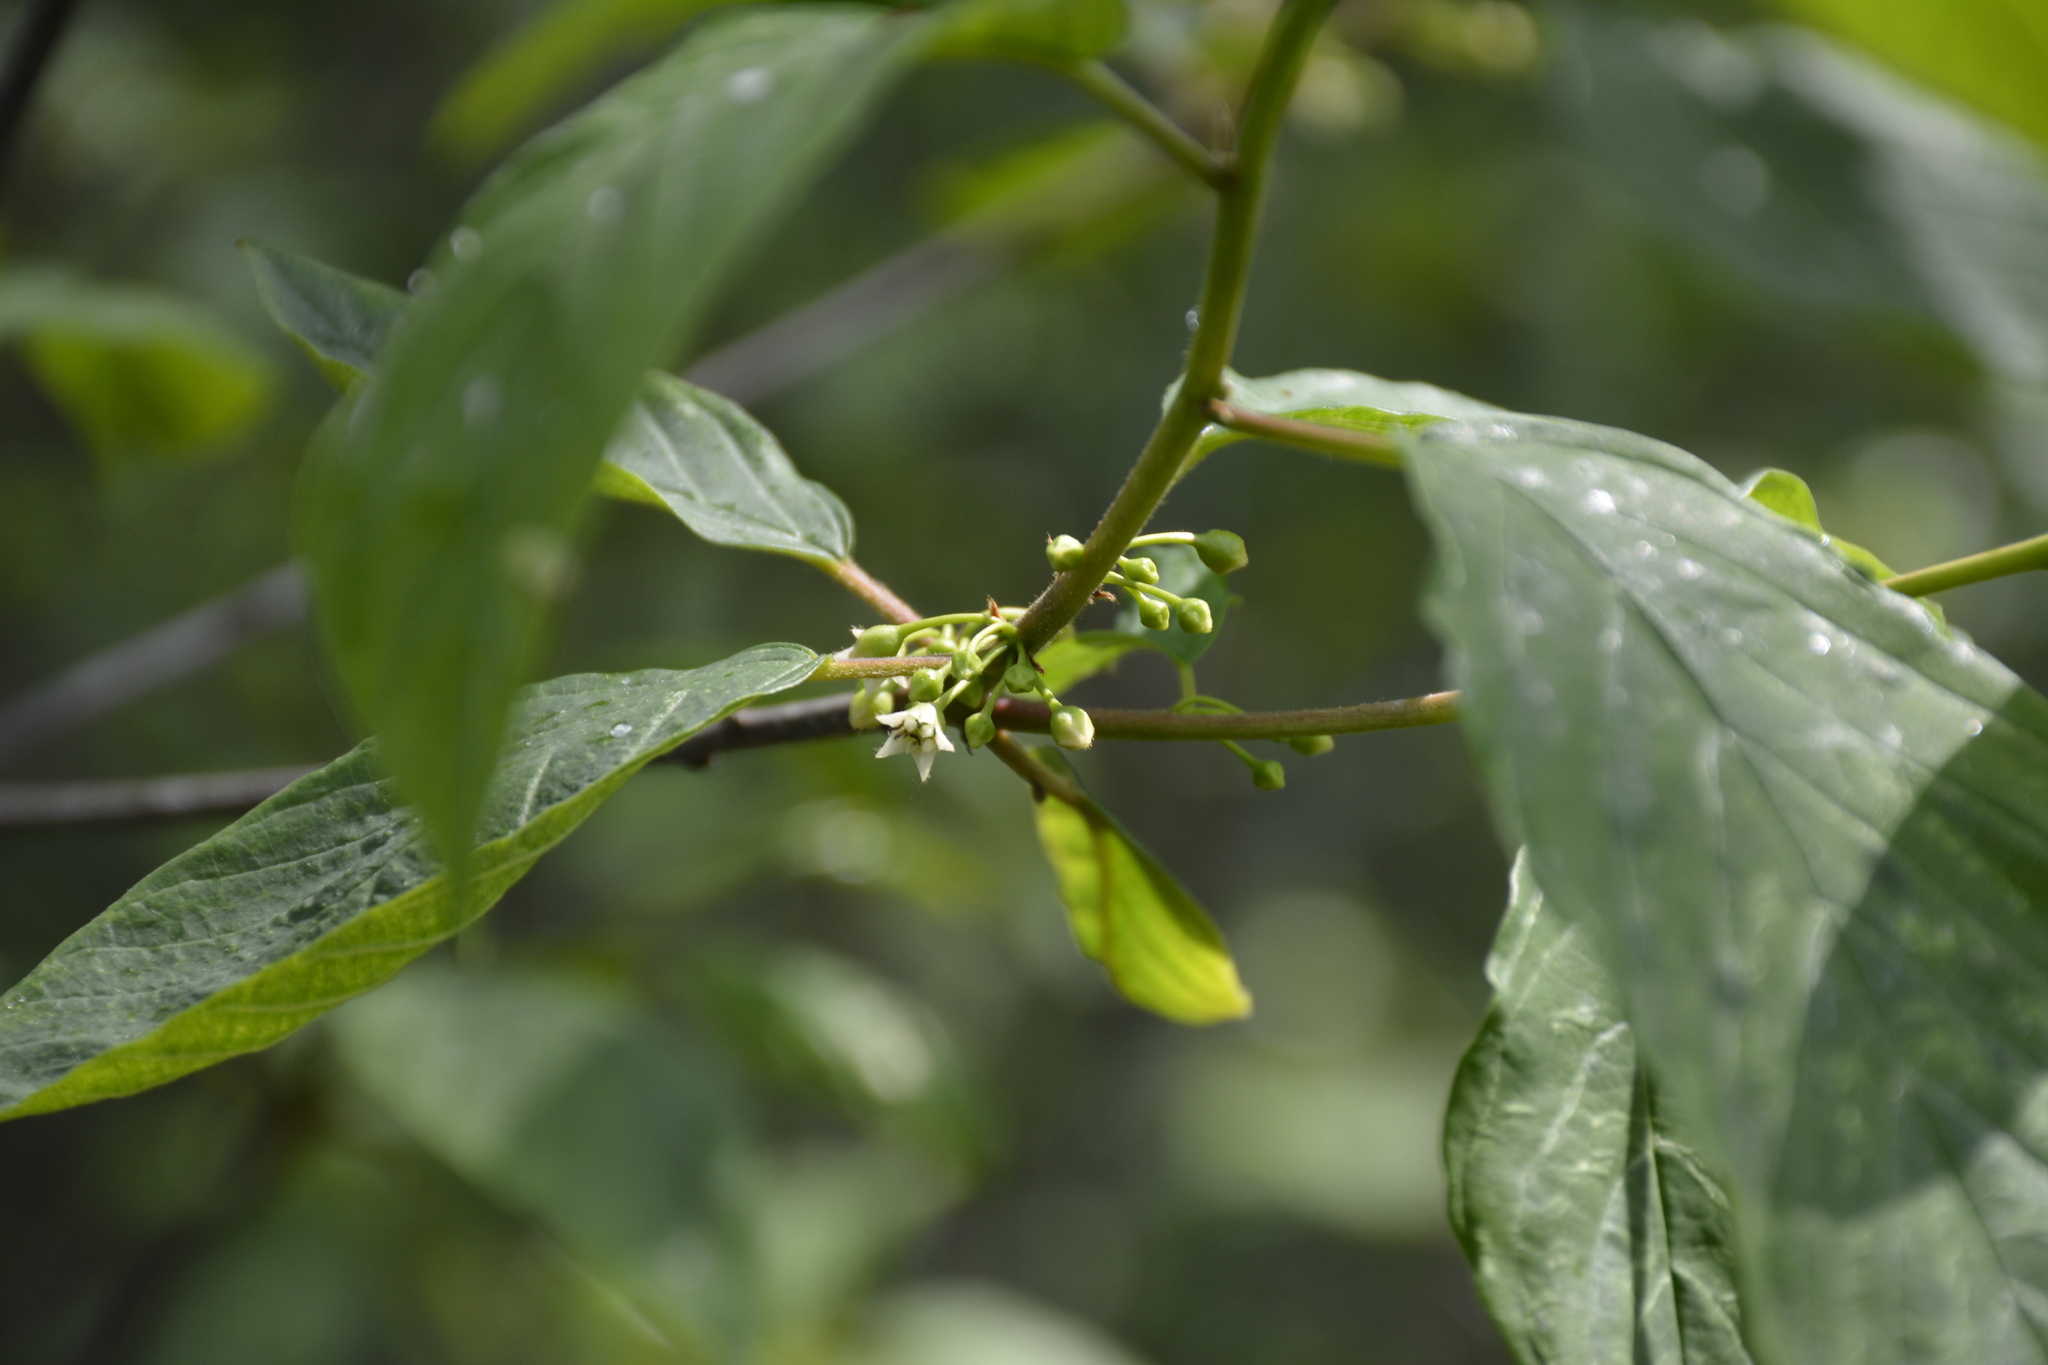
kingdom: Plantae
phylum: Tracheophyta
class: Magnoliopsida
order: Rosales
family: Rhamnaceae
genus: Frangula
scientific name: Frangula alnus
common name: Alder buckthorn
